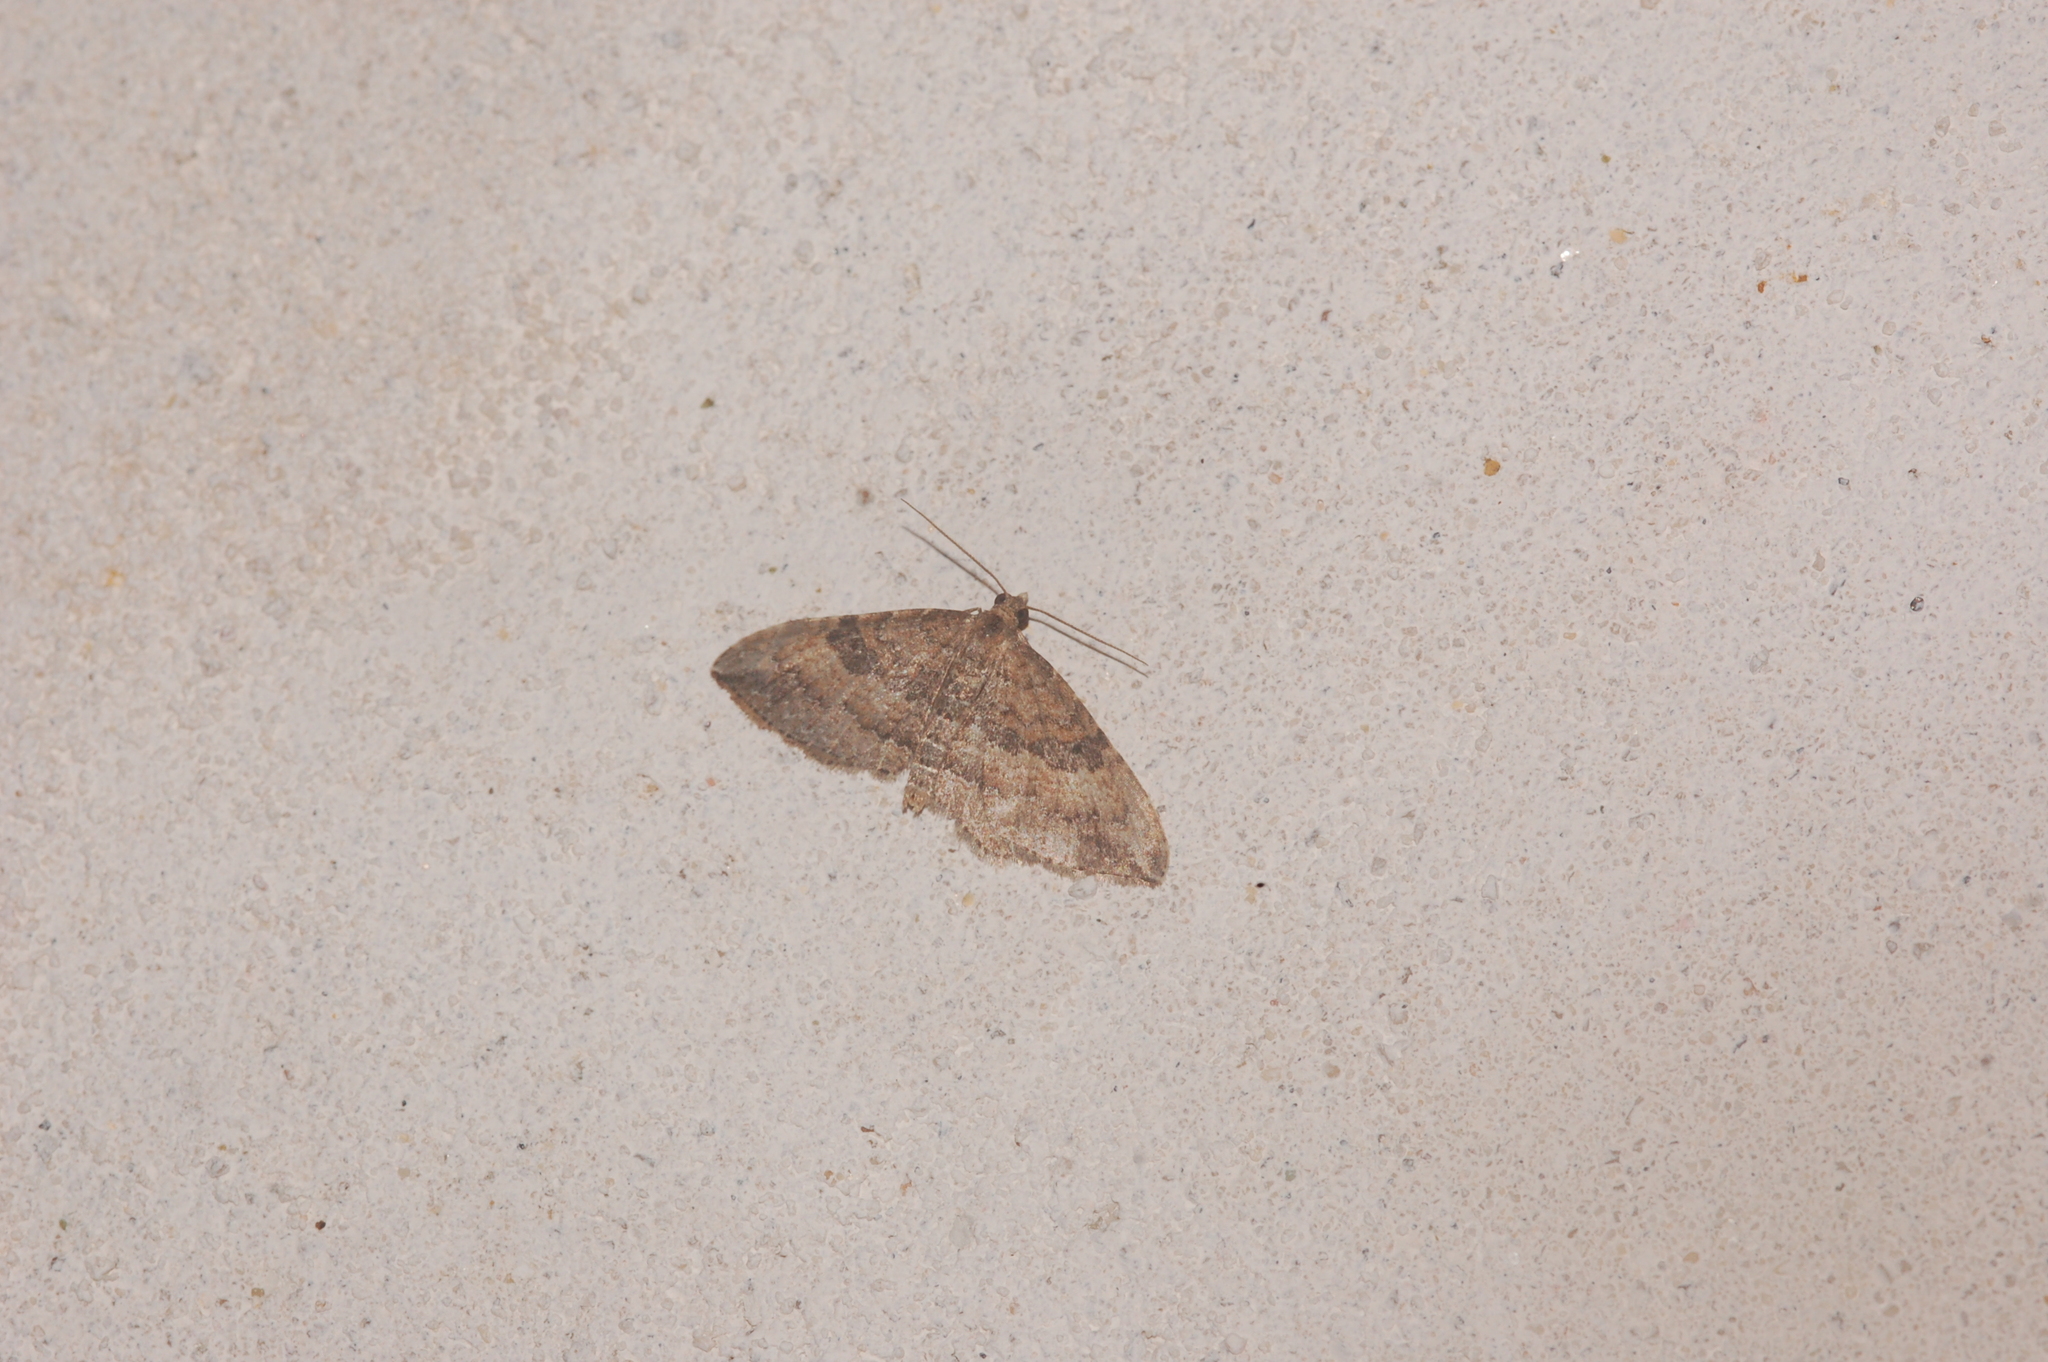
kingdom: Animalia
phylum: Arthropoda
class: Insecta
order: Lepidoptera
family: Geometridae
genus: Orthonama
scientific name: Orthonama obstipata
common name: The gem
